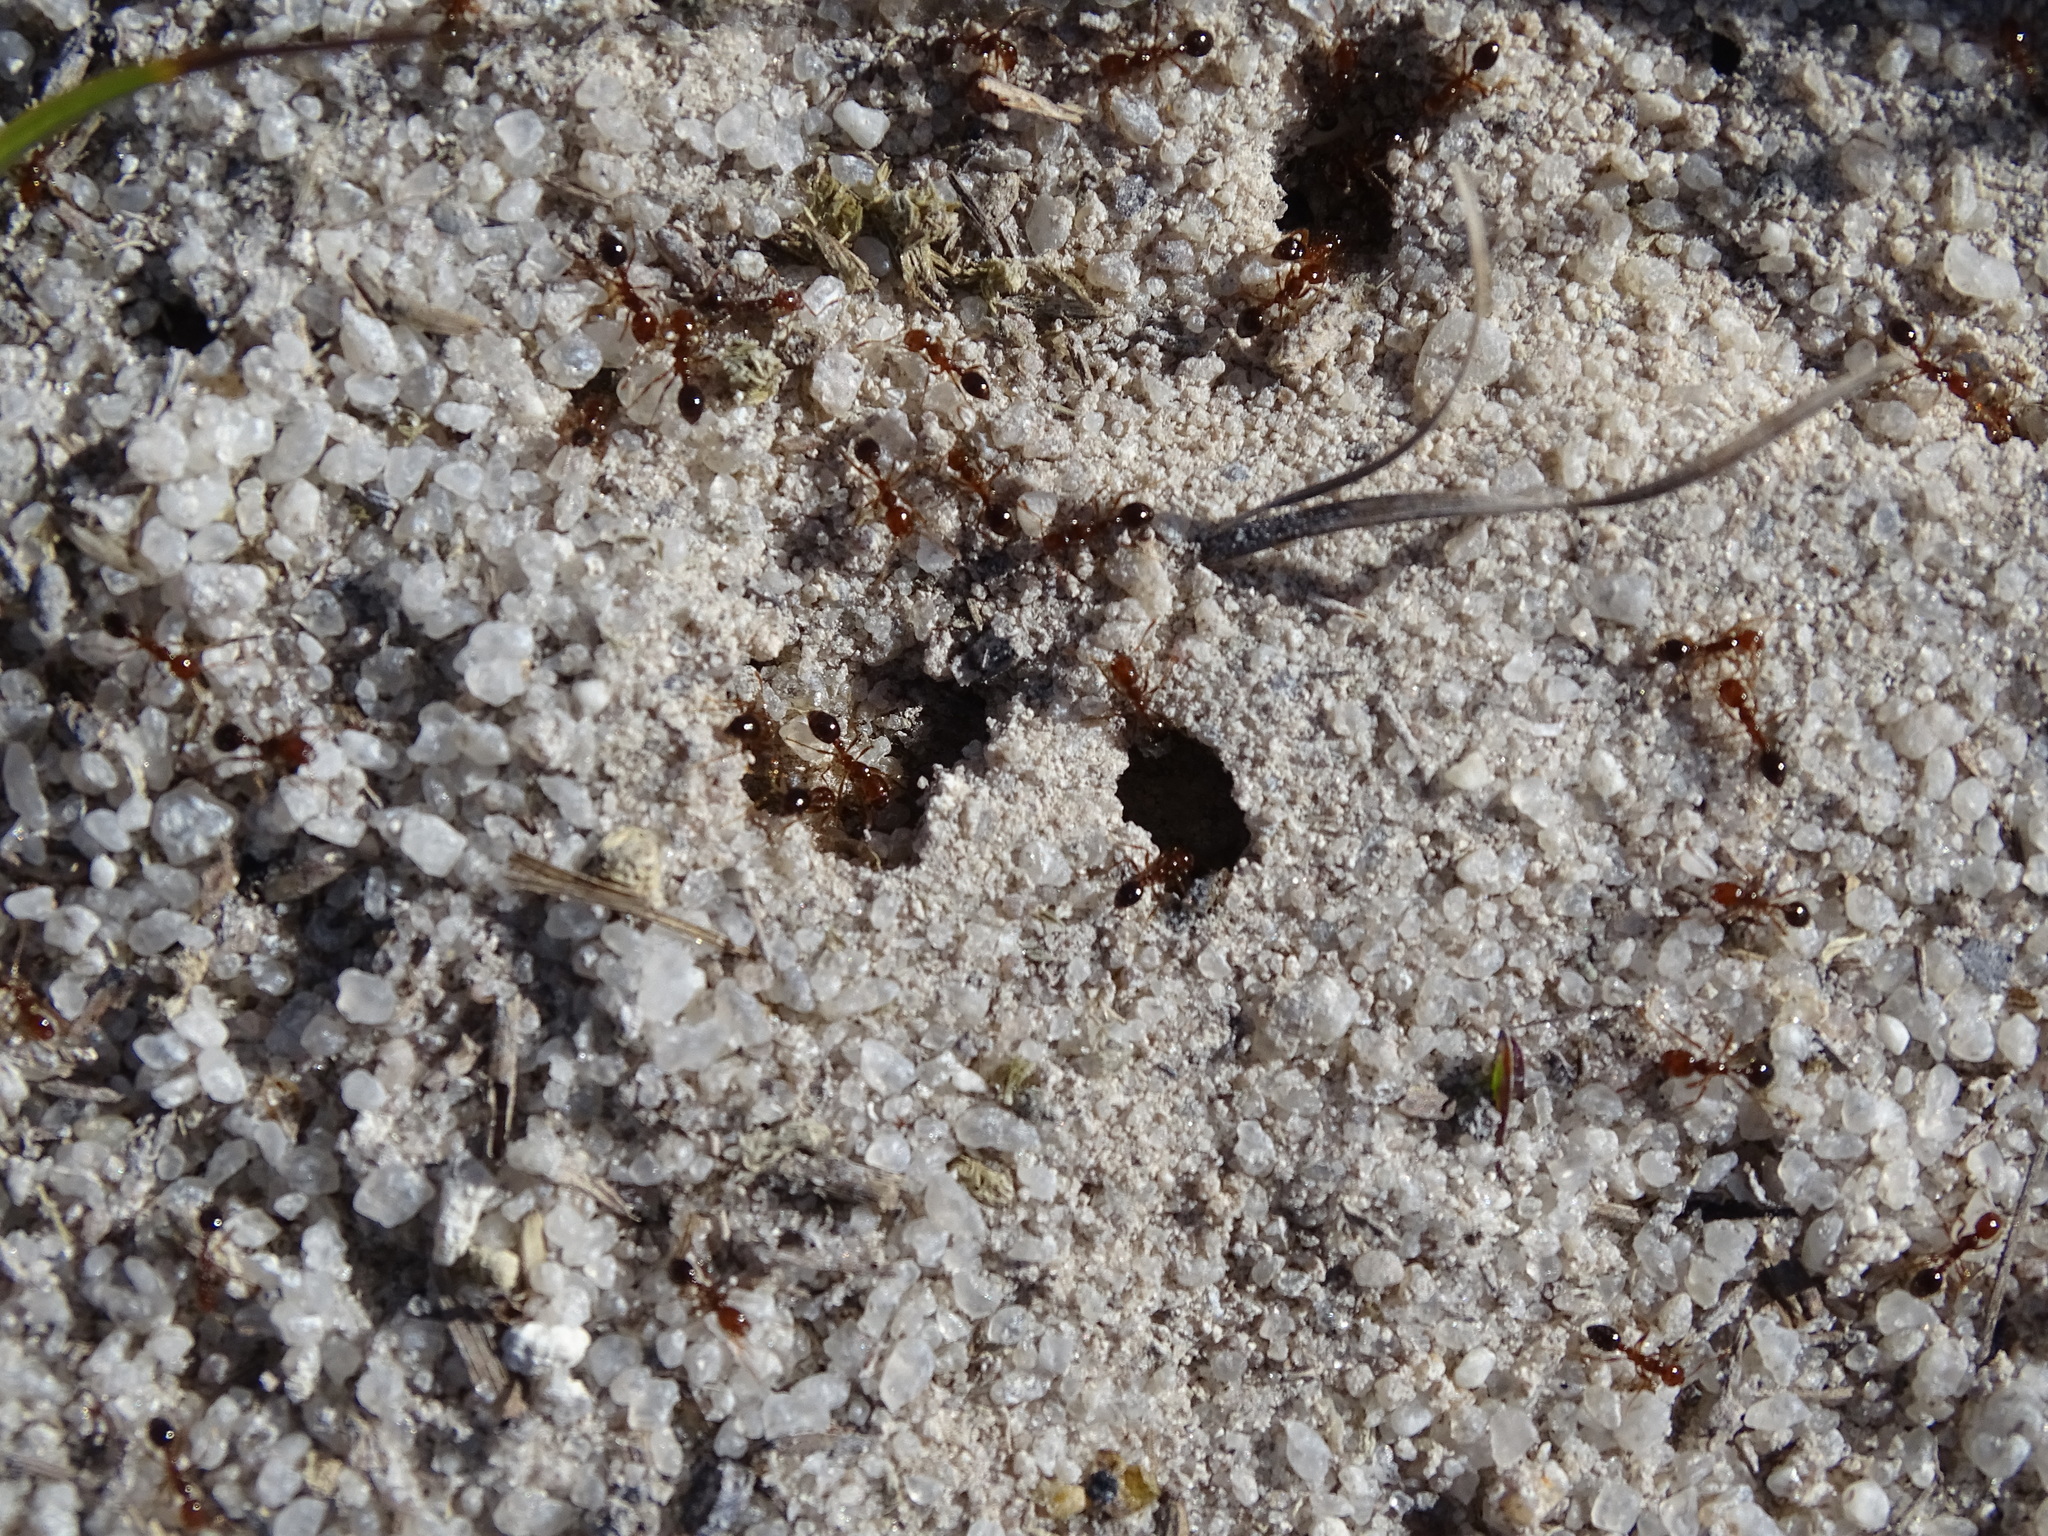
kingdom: Animalia
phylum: Arthropoda
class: Insecta
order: Hymenoptera
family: Formicidae
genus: Solenopsis
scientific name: Solenopsis invicta
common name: Red imported fire ant
